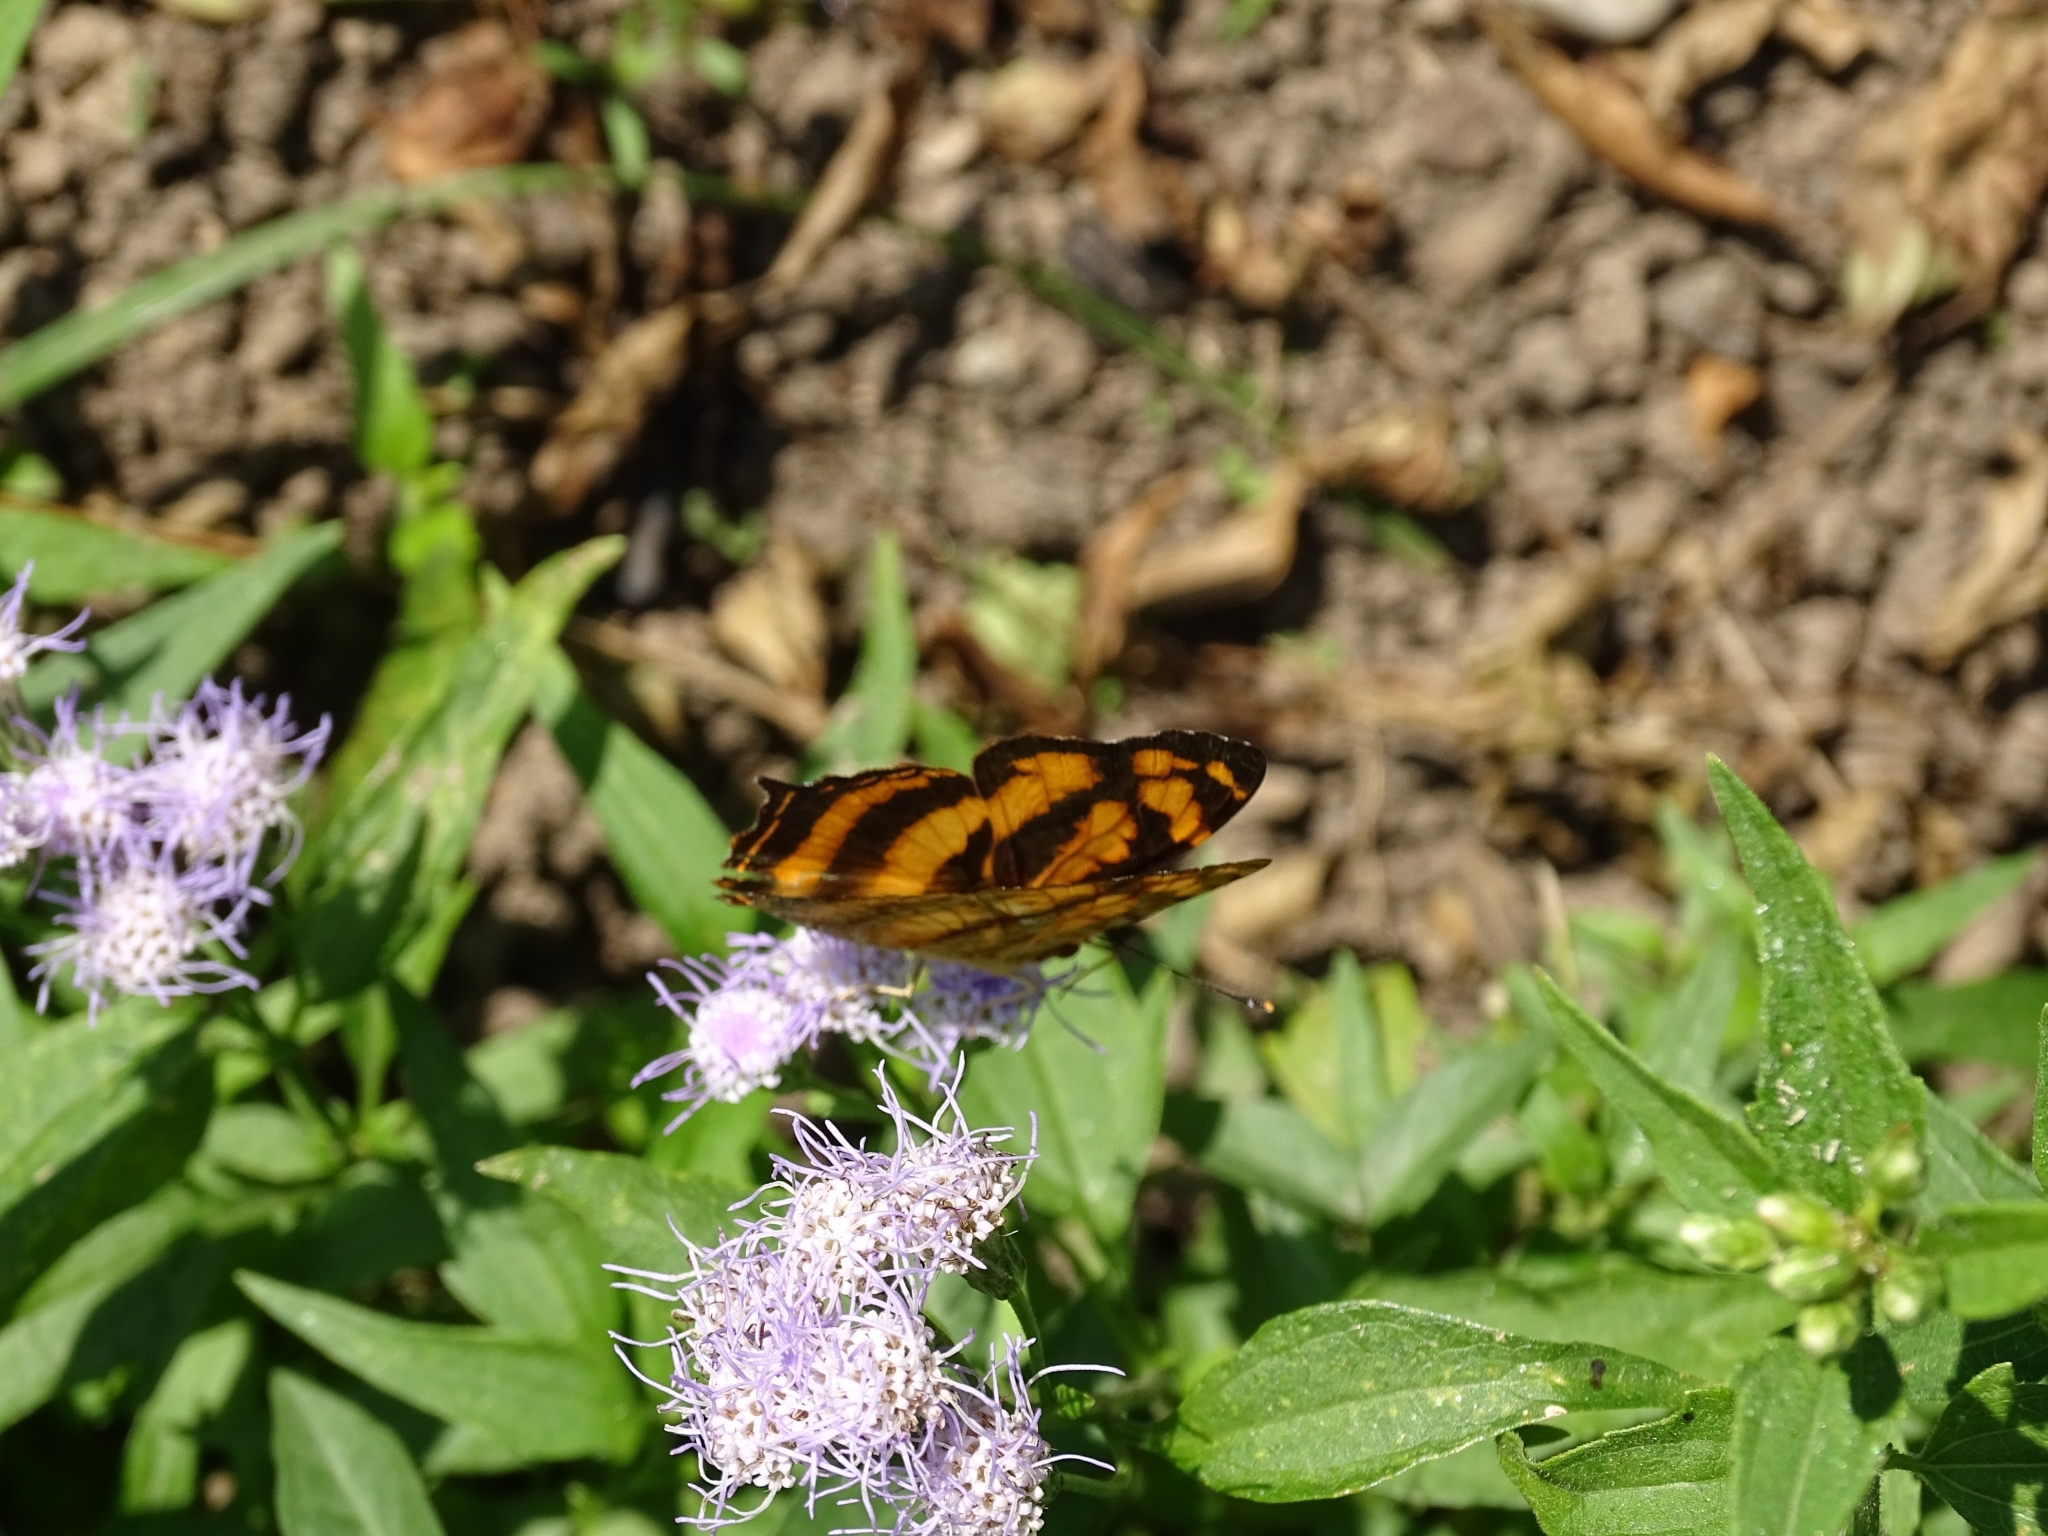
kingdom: Animalia
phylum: Arthropoda
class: Insecta
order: Lepidoptera
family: Nymphalidae
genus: Symbrenthia
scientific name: Symbrenthia hypselis
